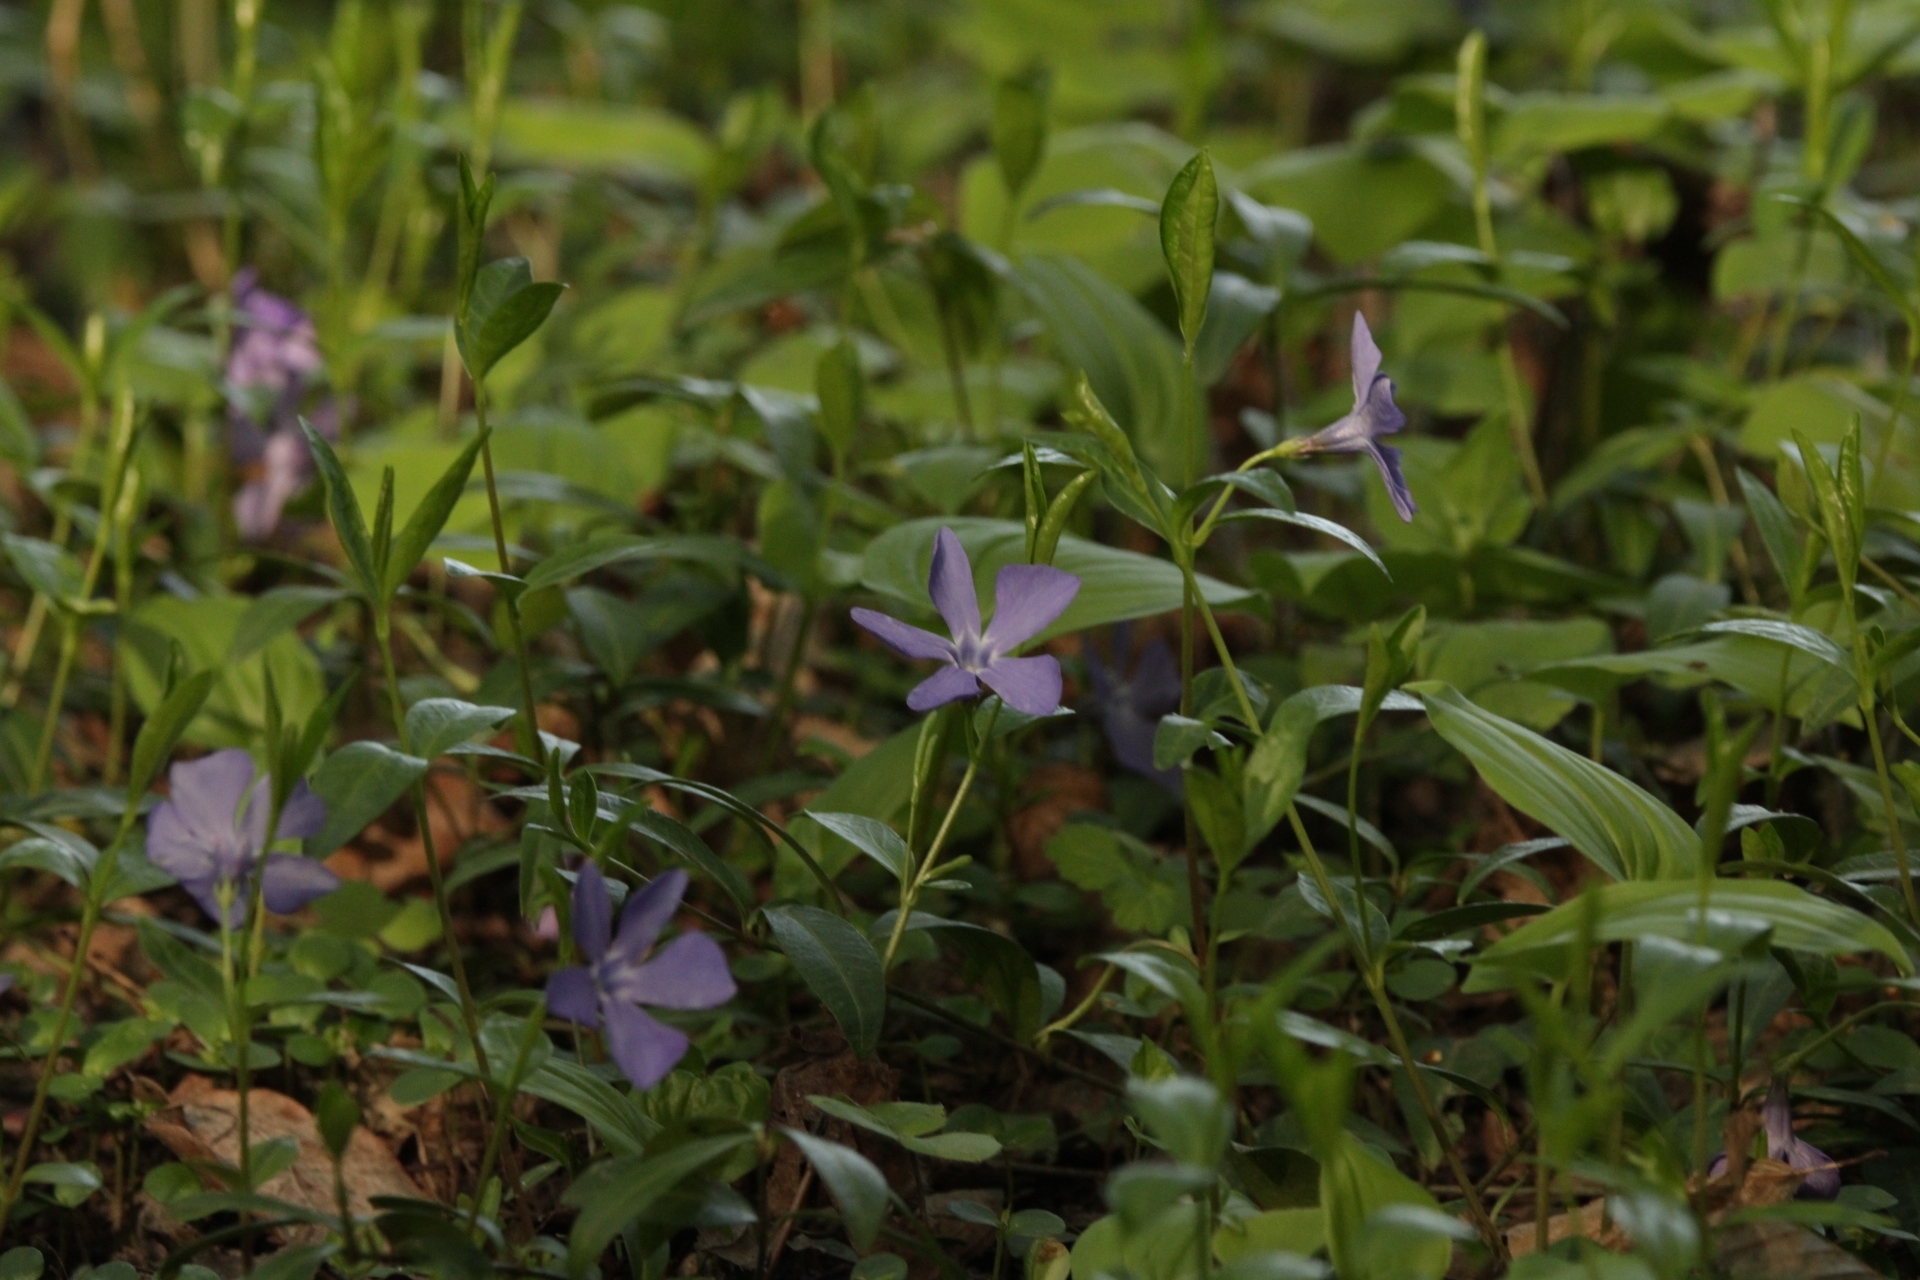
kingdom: Plantae
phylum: Tracheophyta
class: Magnoliopsida
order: Gentianales
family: Apocynaceae
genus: Vinca
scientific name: Vinca minor
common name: Lesser periwinkle
